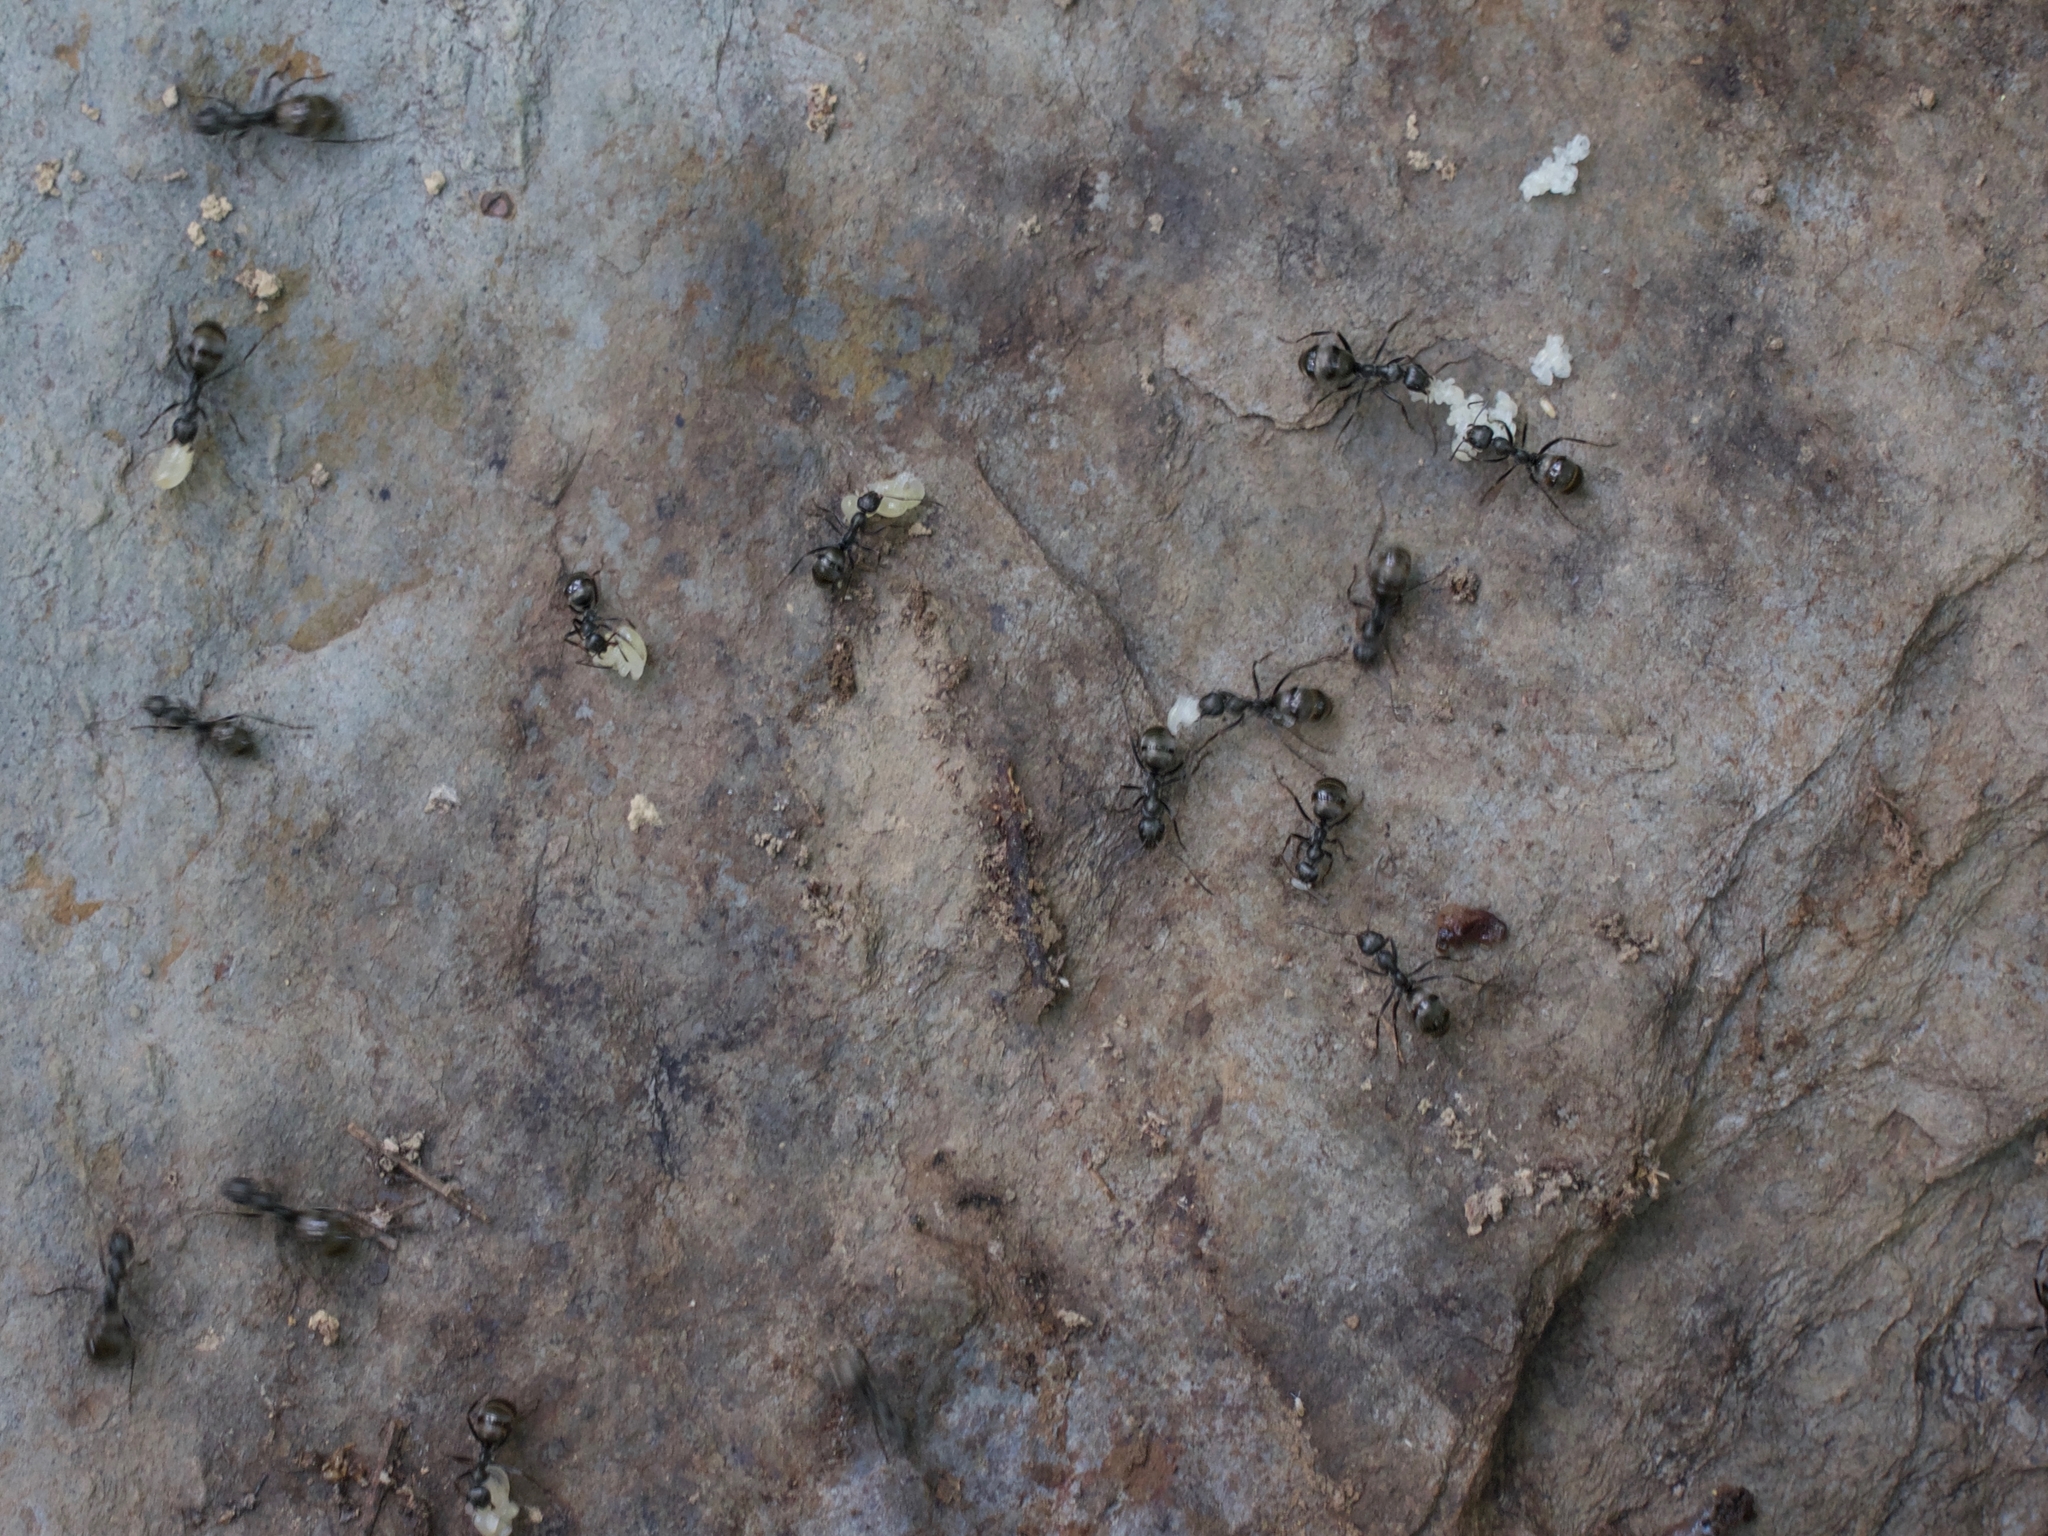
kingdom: Animalia
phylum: Arthropoda
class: Insecta
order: Hymenoptera
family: Formicidae
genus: Formica
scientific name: Formica
